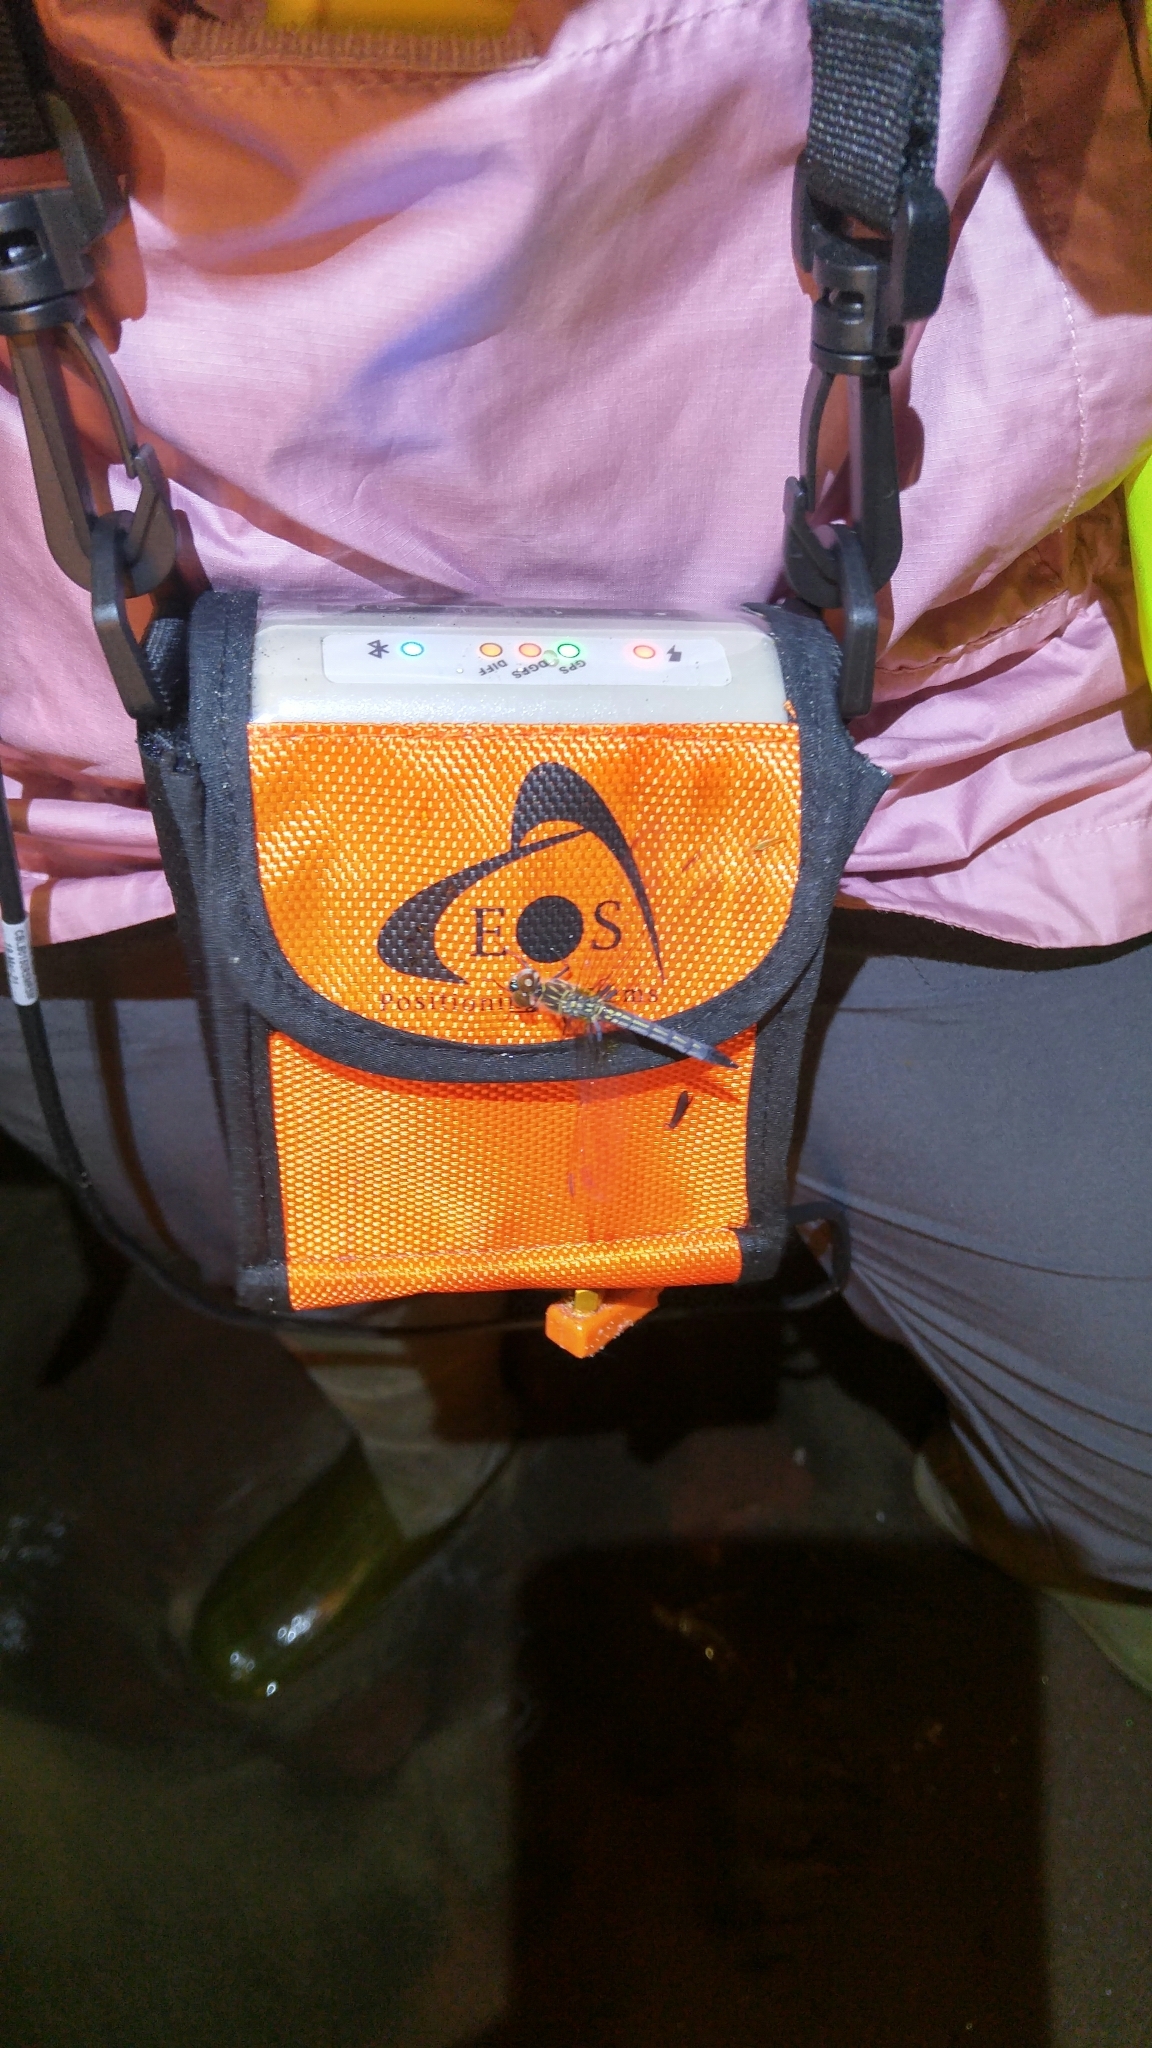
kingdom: Animalia
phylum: Arthropoda
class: Insecta
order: Odonata
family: Libellulidae
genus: Pachydiplax
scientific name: Pachydiplax longipennis
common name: Blue dasher
